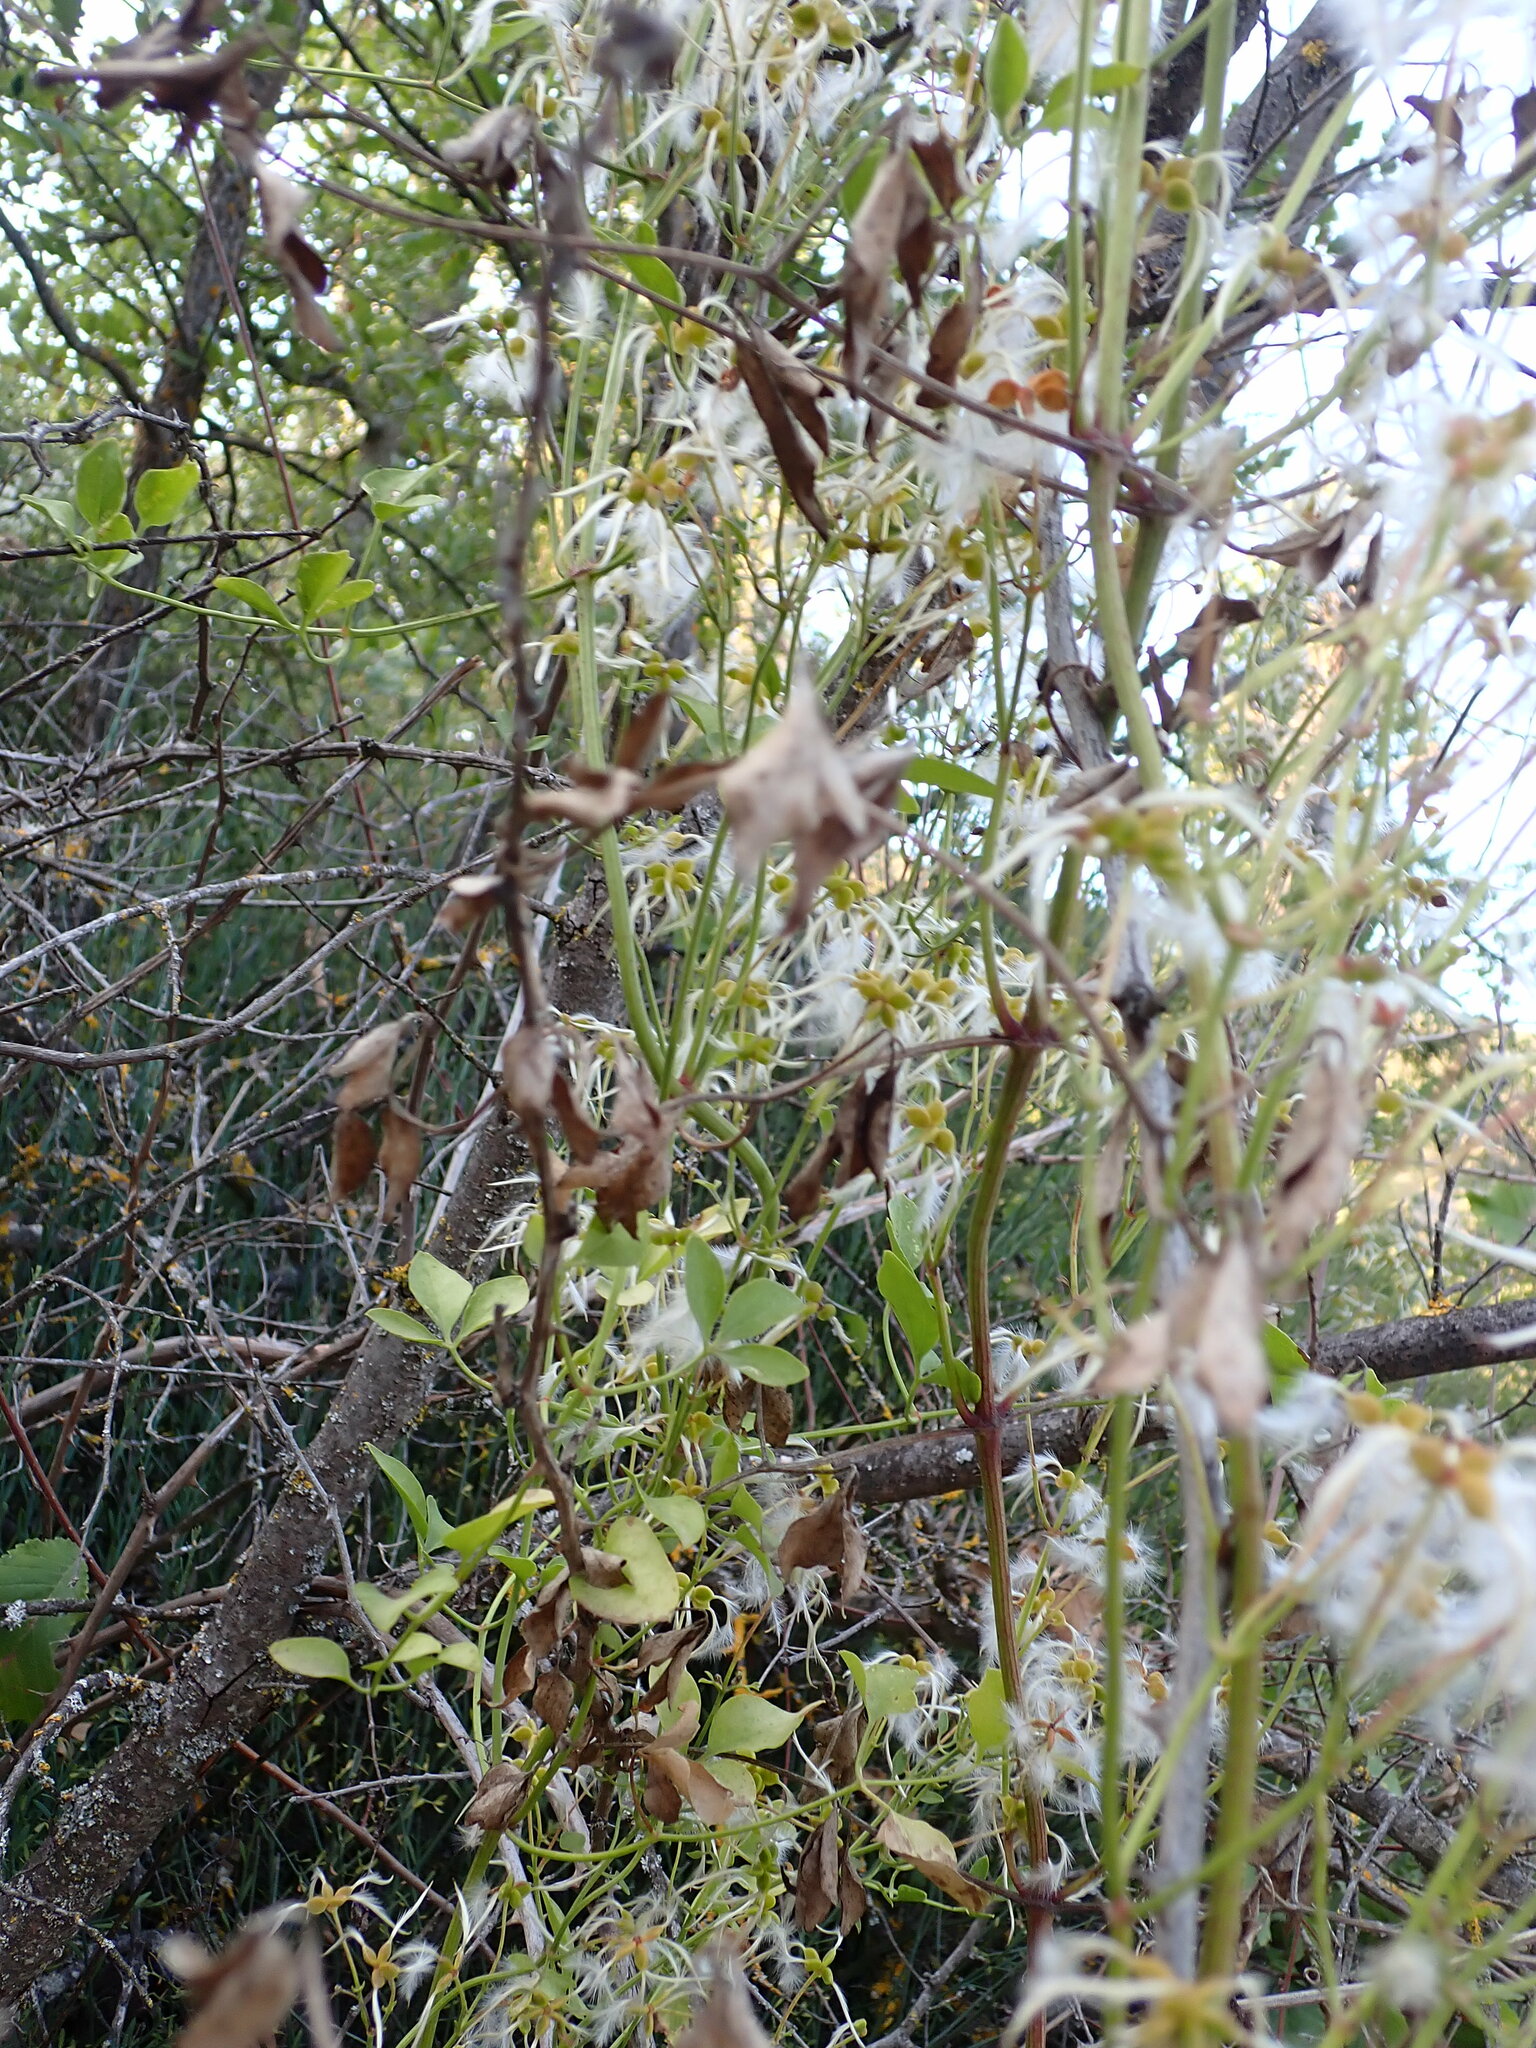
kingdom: Plantae
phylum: Tracheophyta
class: Magnoliopsida
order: Ranunculales
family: Ranunculaceae
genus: Clematis
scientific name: Clematis flammula
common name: Virgin's-bower
